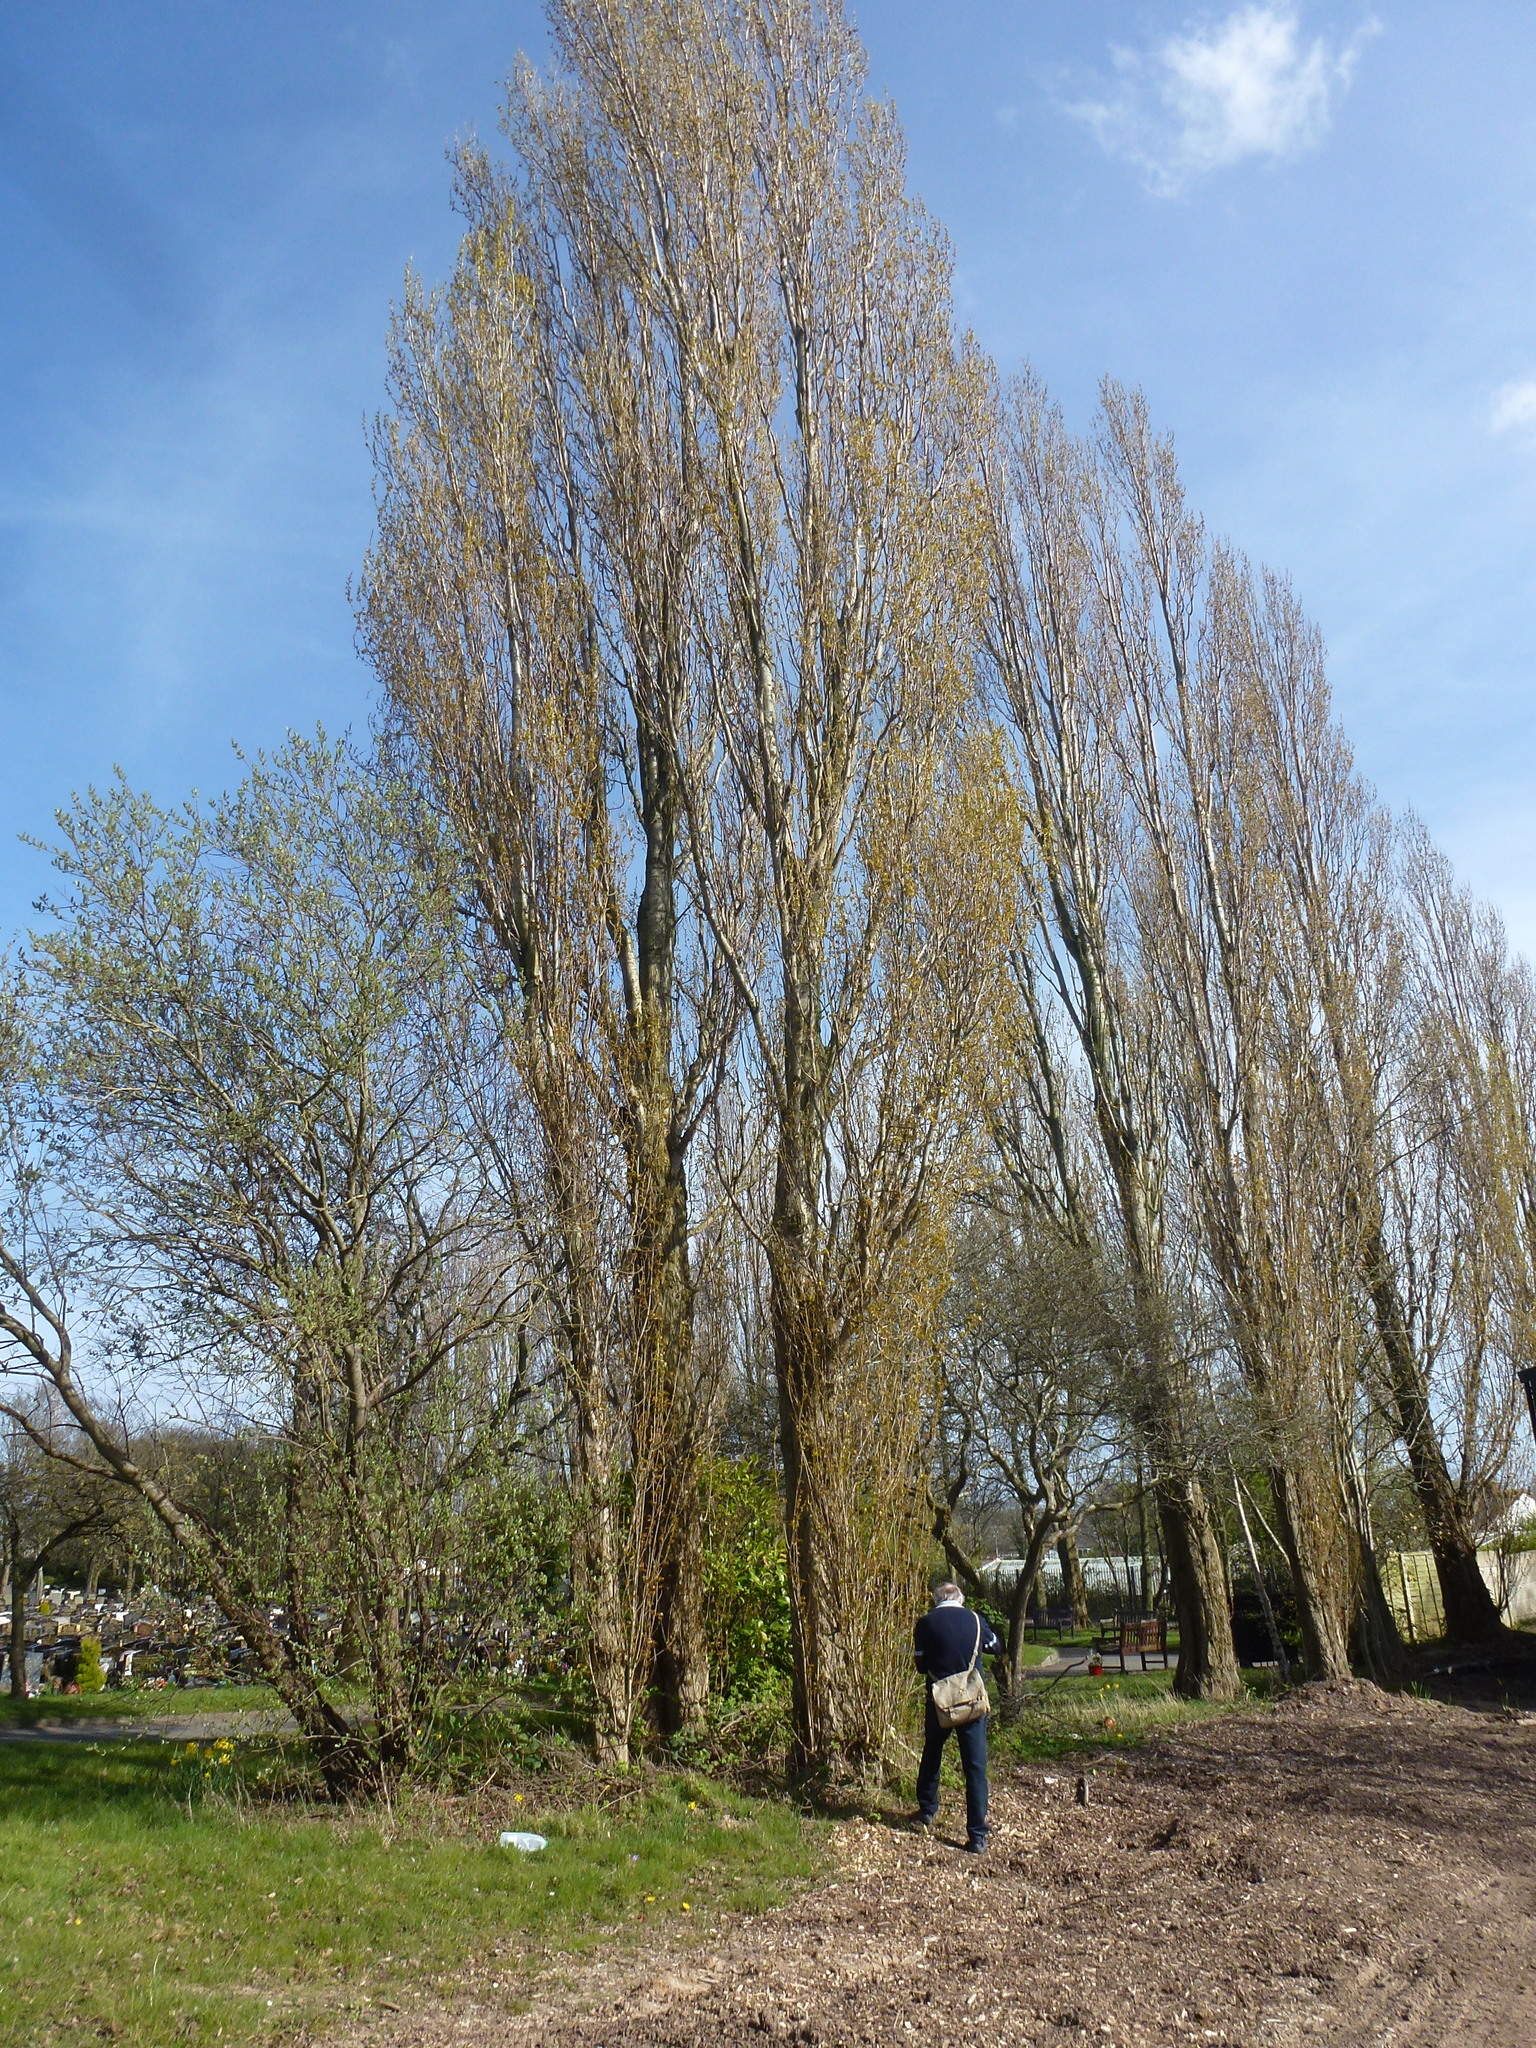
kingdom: Plantae
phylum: Tracheophyta
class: Magnoliopsida
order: Malpighiales
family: Salicaceae
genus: Populus
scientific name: Populus nigra
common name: Black poplar
